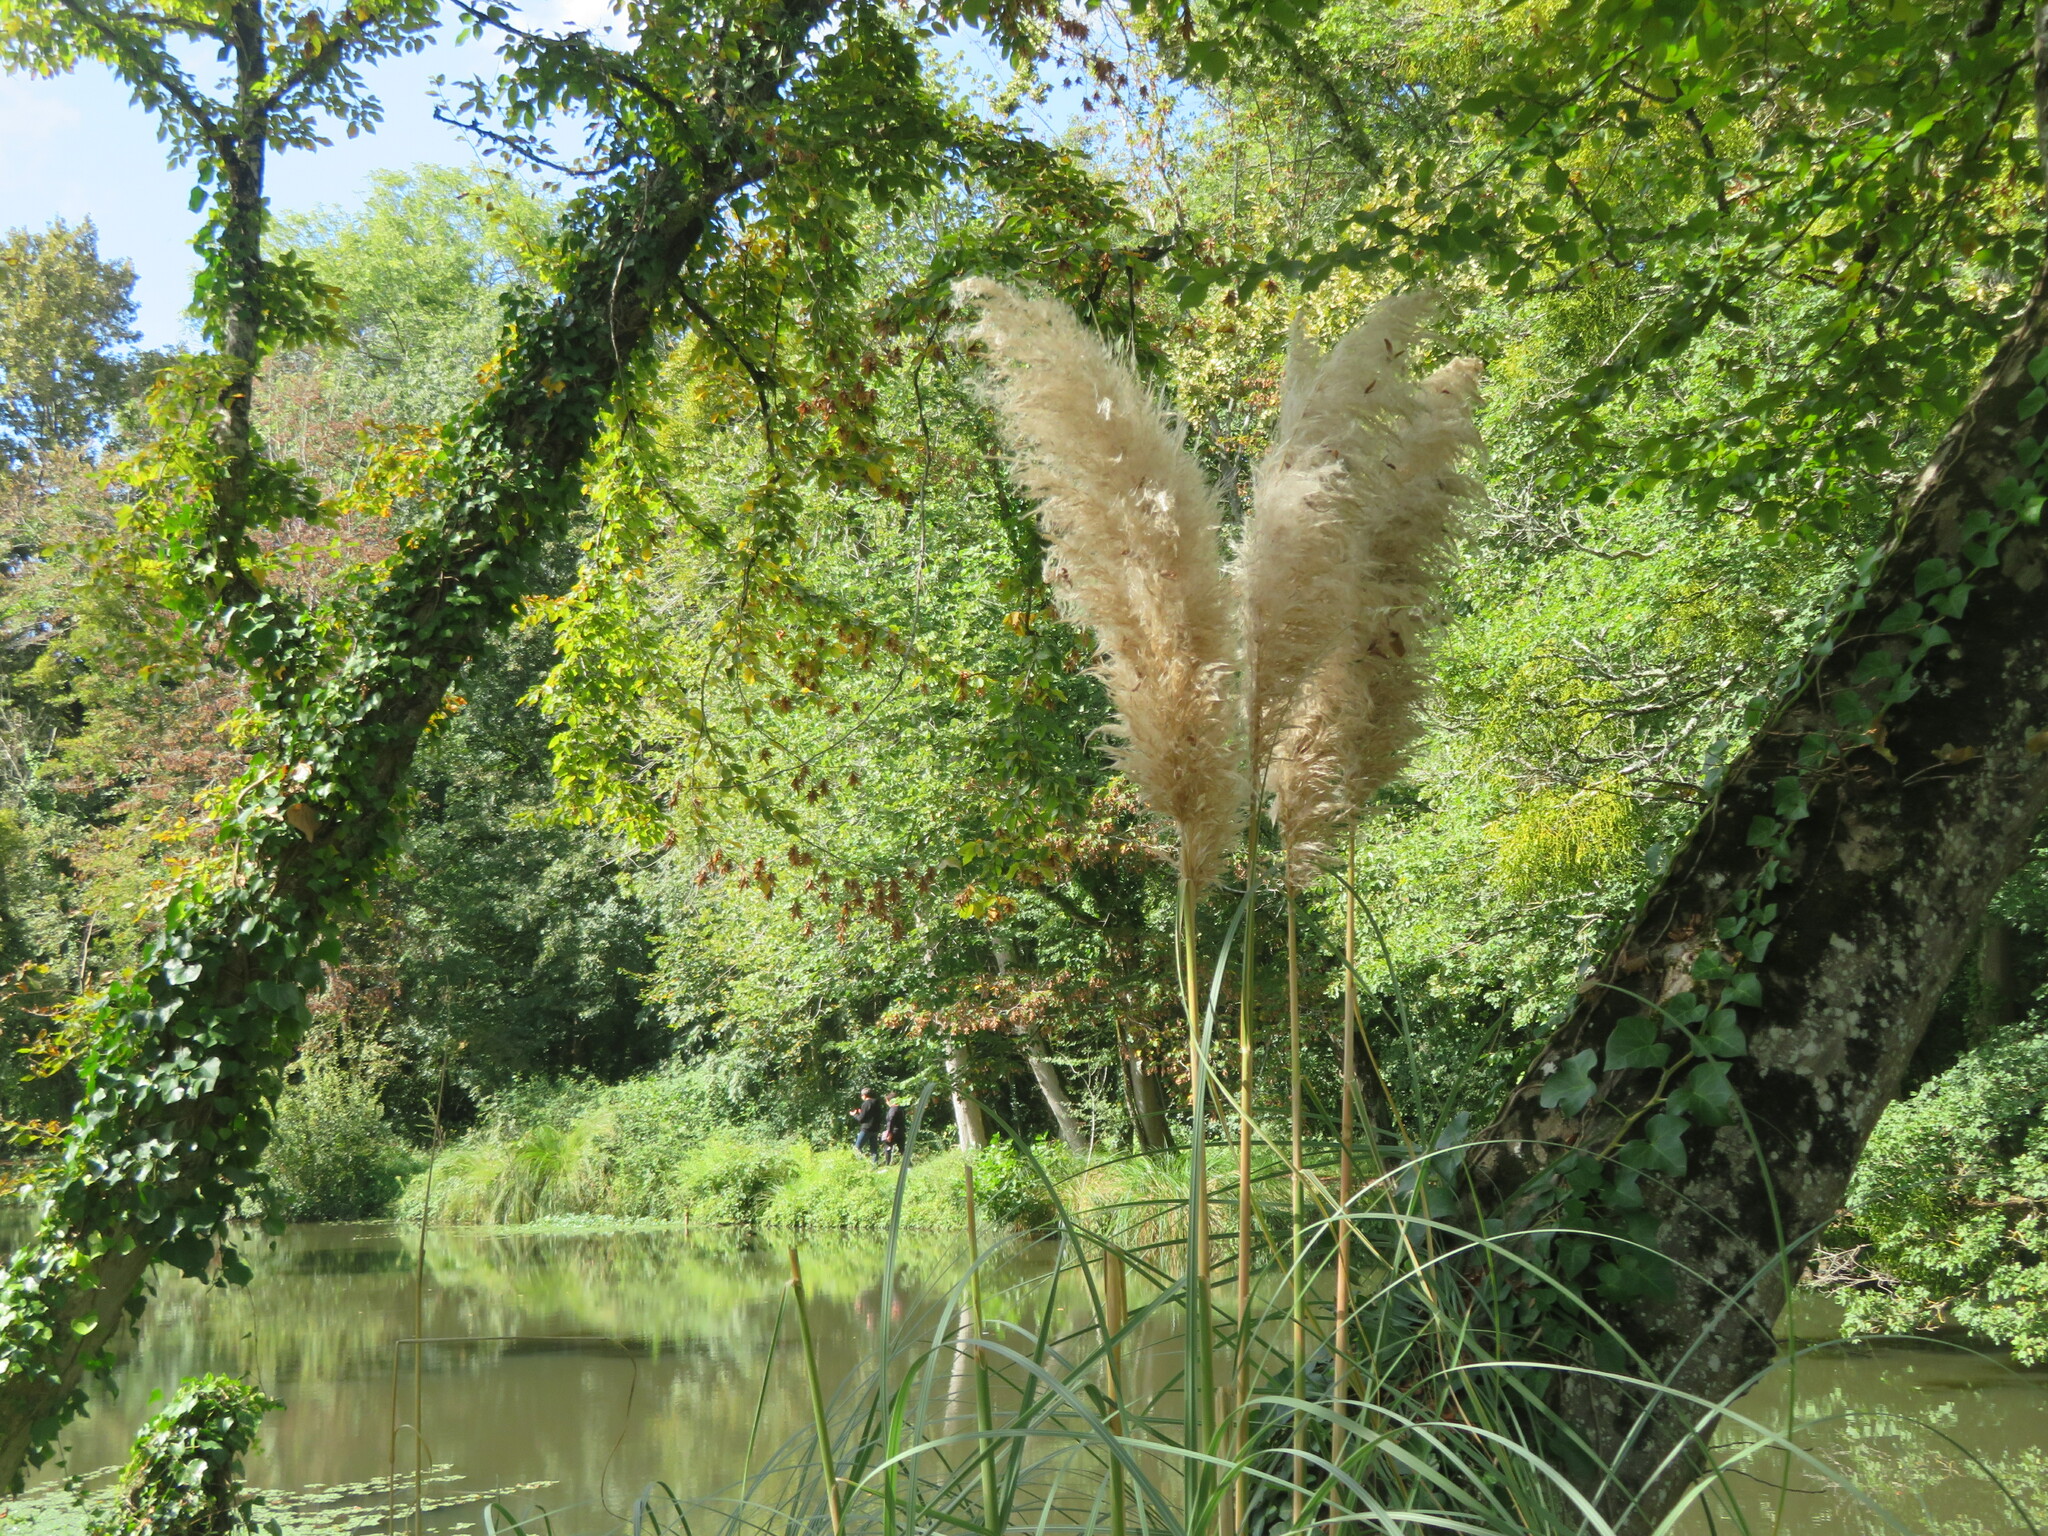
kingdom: Plantae
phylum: Tracheophyta
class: Liliopsida
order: Poales
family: Poaceae
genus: Cortaderia
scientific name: Cortaderia selloana
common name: Uruguayan pampas grass
